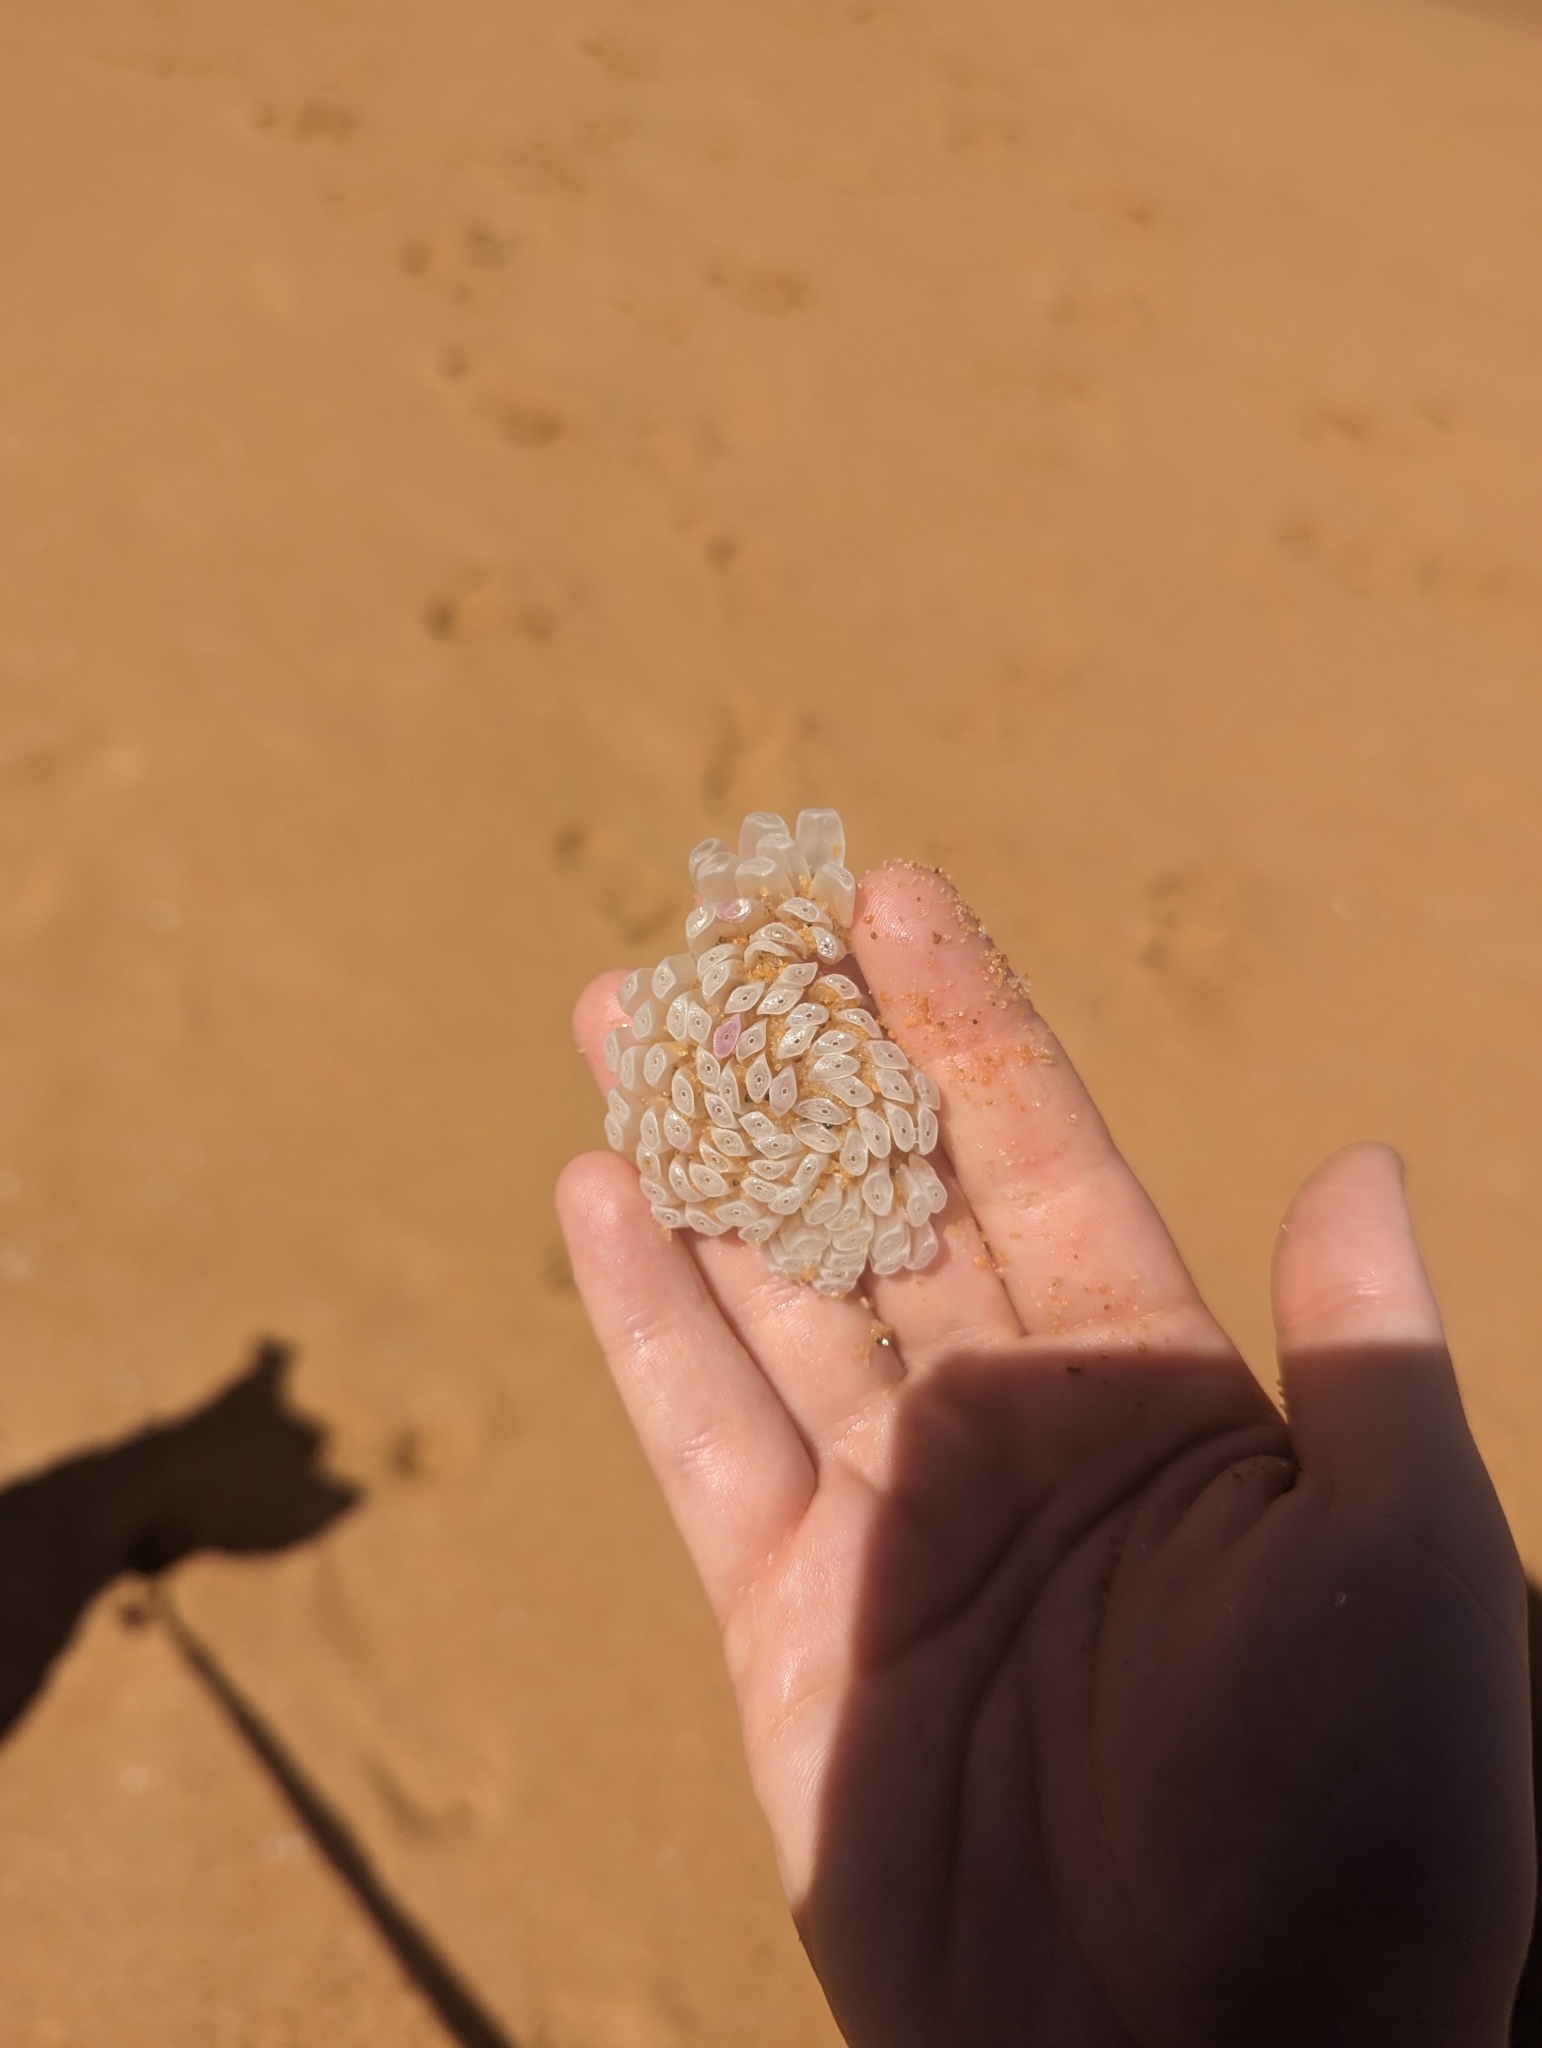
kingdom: Animalia
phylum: Mollusca
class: Gastropoda
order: Neogastropoda
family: Muricidae
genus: Dicathais
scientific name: Dicathais orbita
